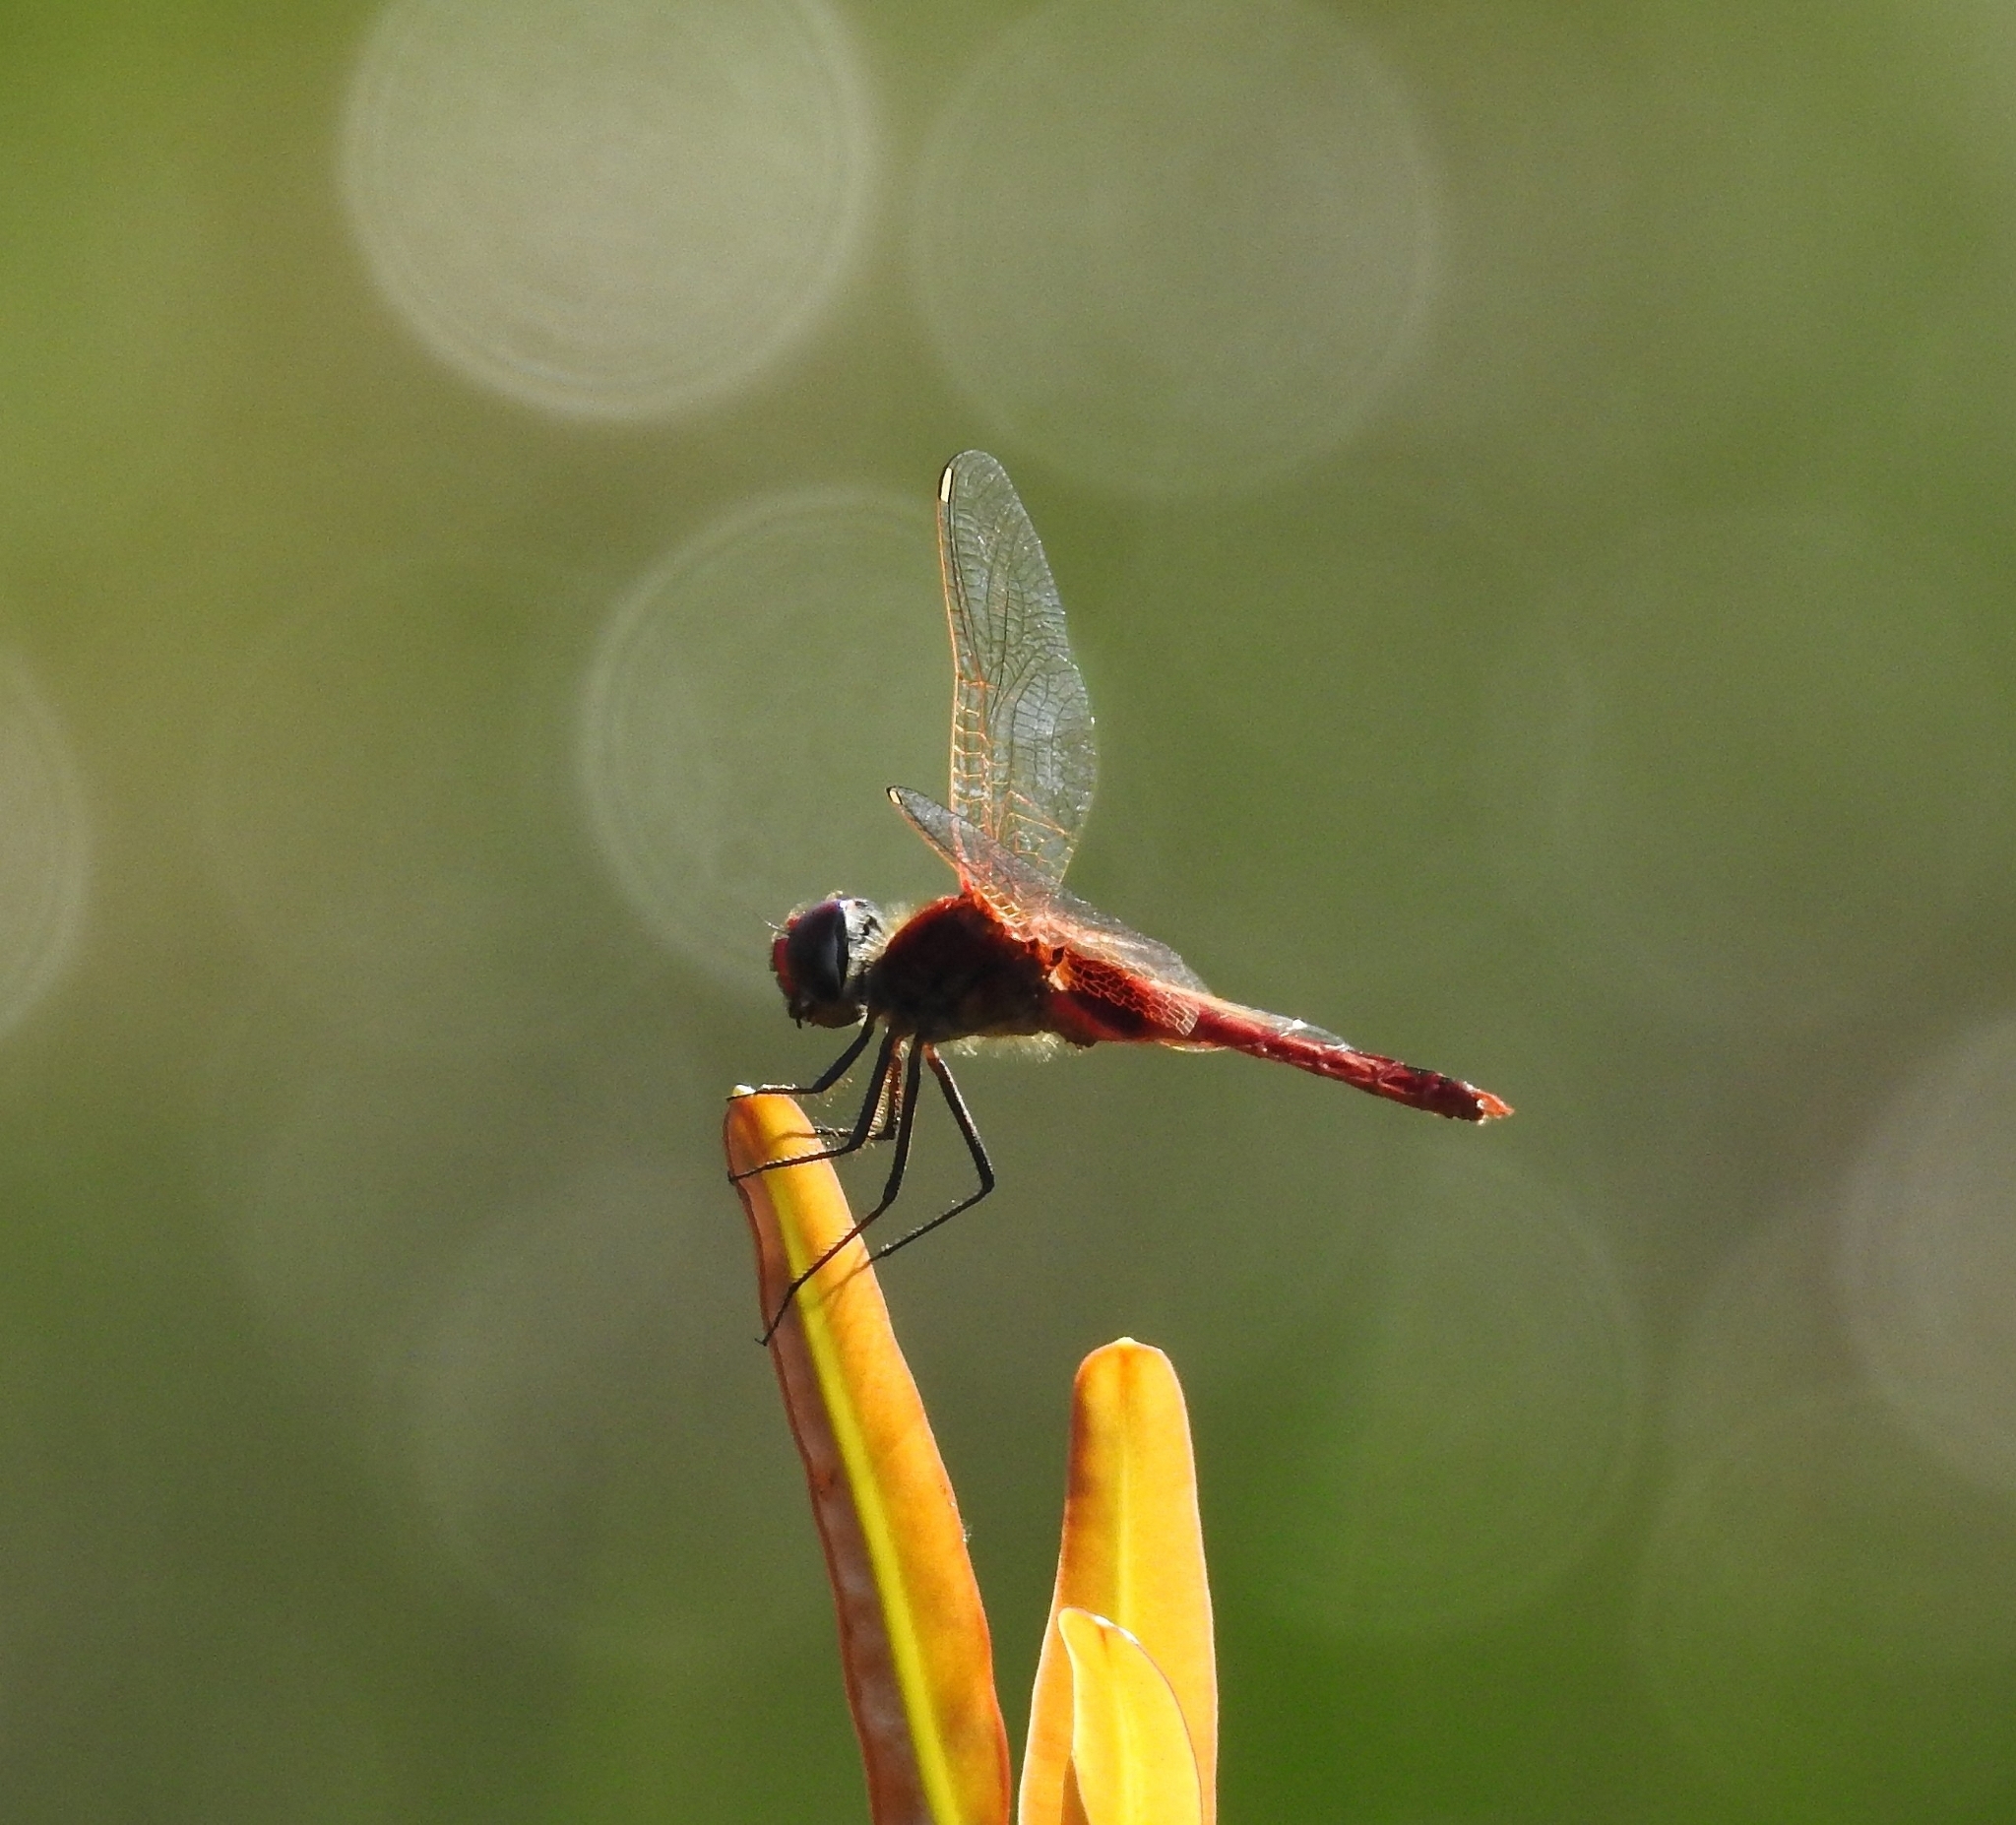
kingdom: Animalia
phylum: Arthropoda
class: Insecta
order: Odonata
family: Libellulidae
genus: Urothemis
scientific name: Urothemis signata
